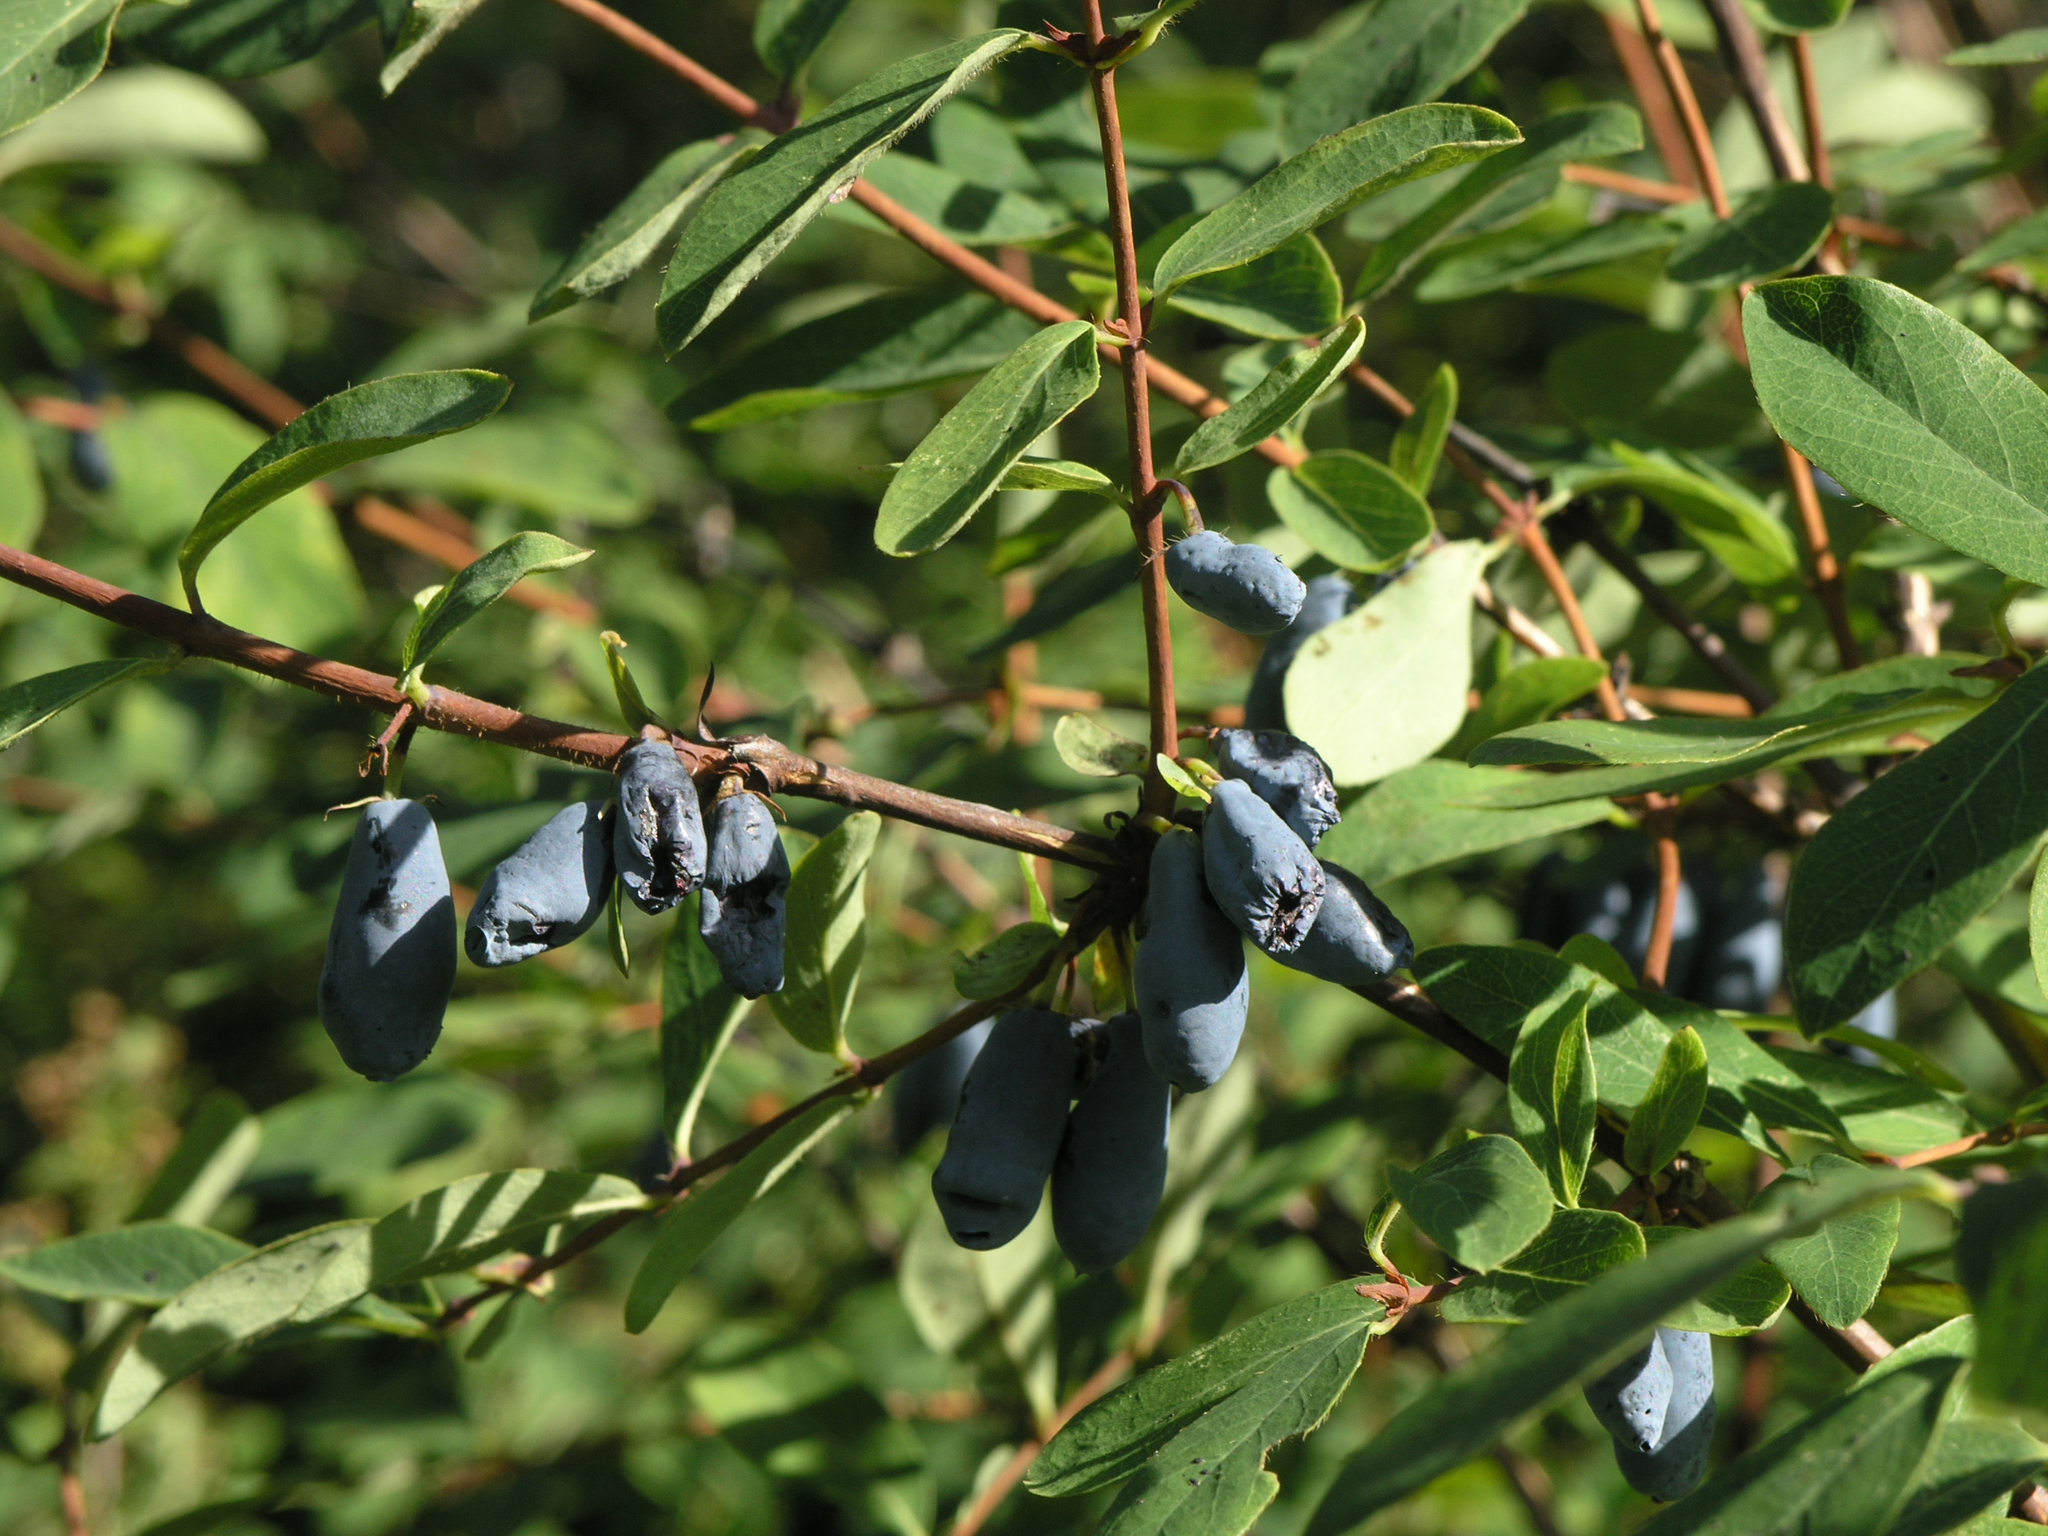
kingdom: Plantae
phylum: Tracheophyta
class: Magnoliopsida
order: Dipsacales
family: Caprifoliaceae
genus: Lonicera
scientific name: Lonicera caerulea
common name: Blue honeysuckle
